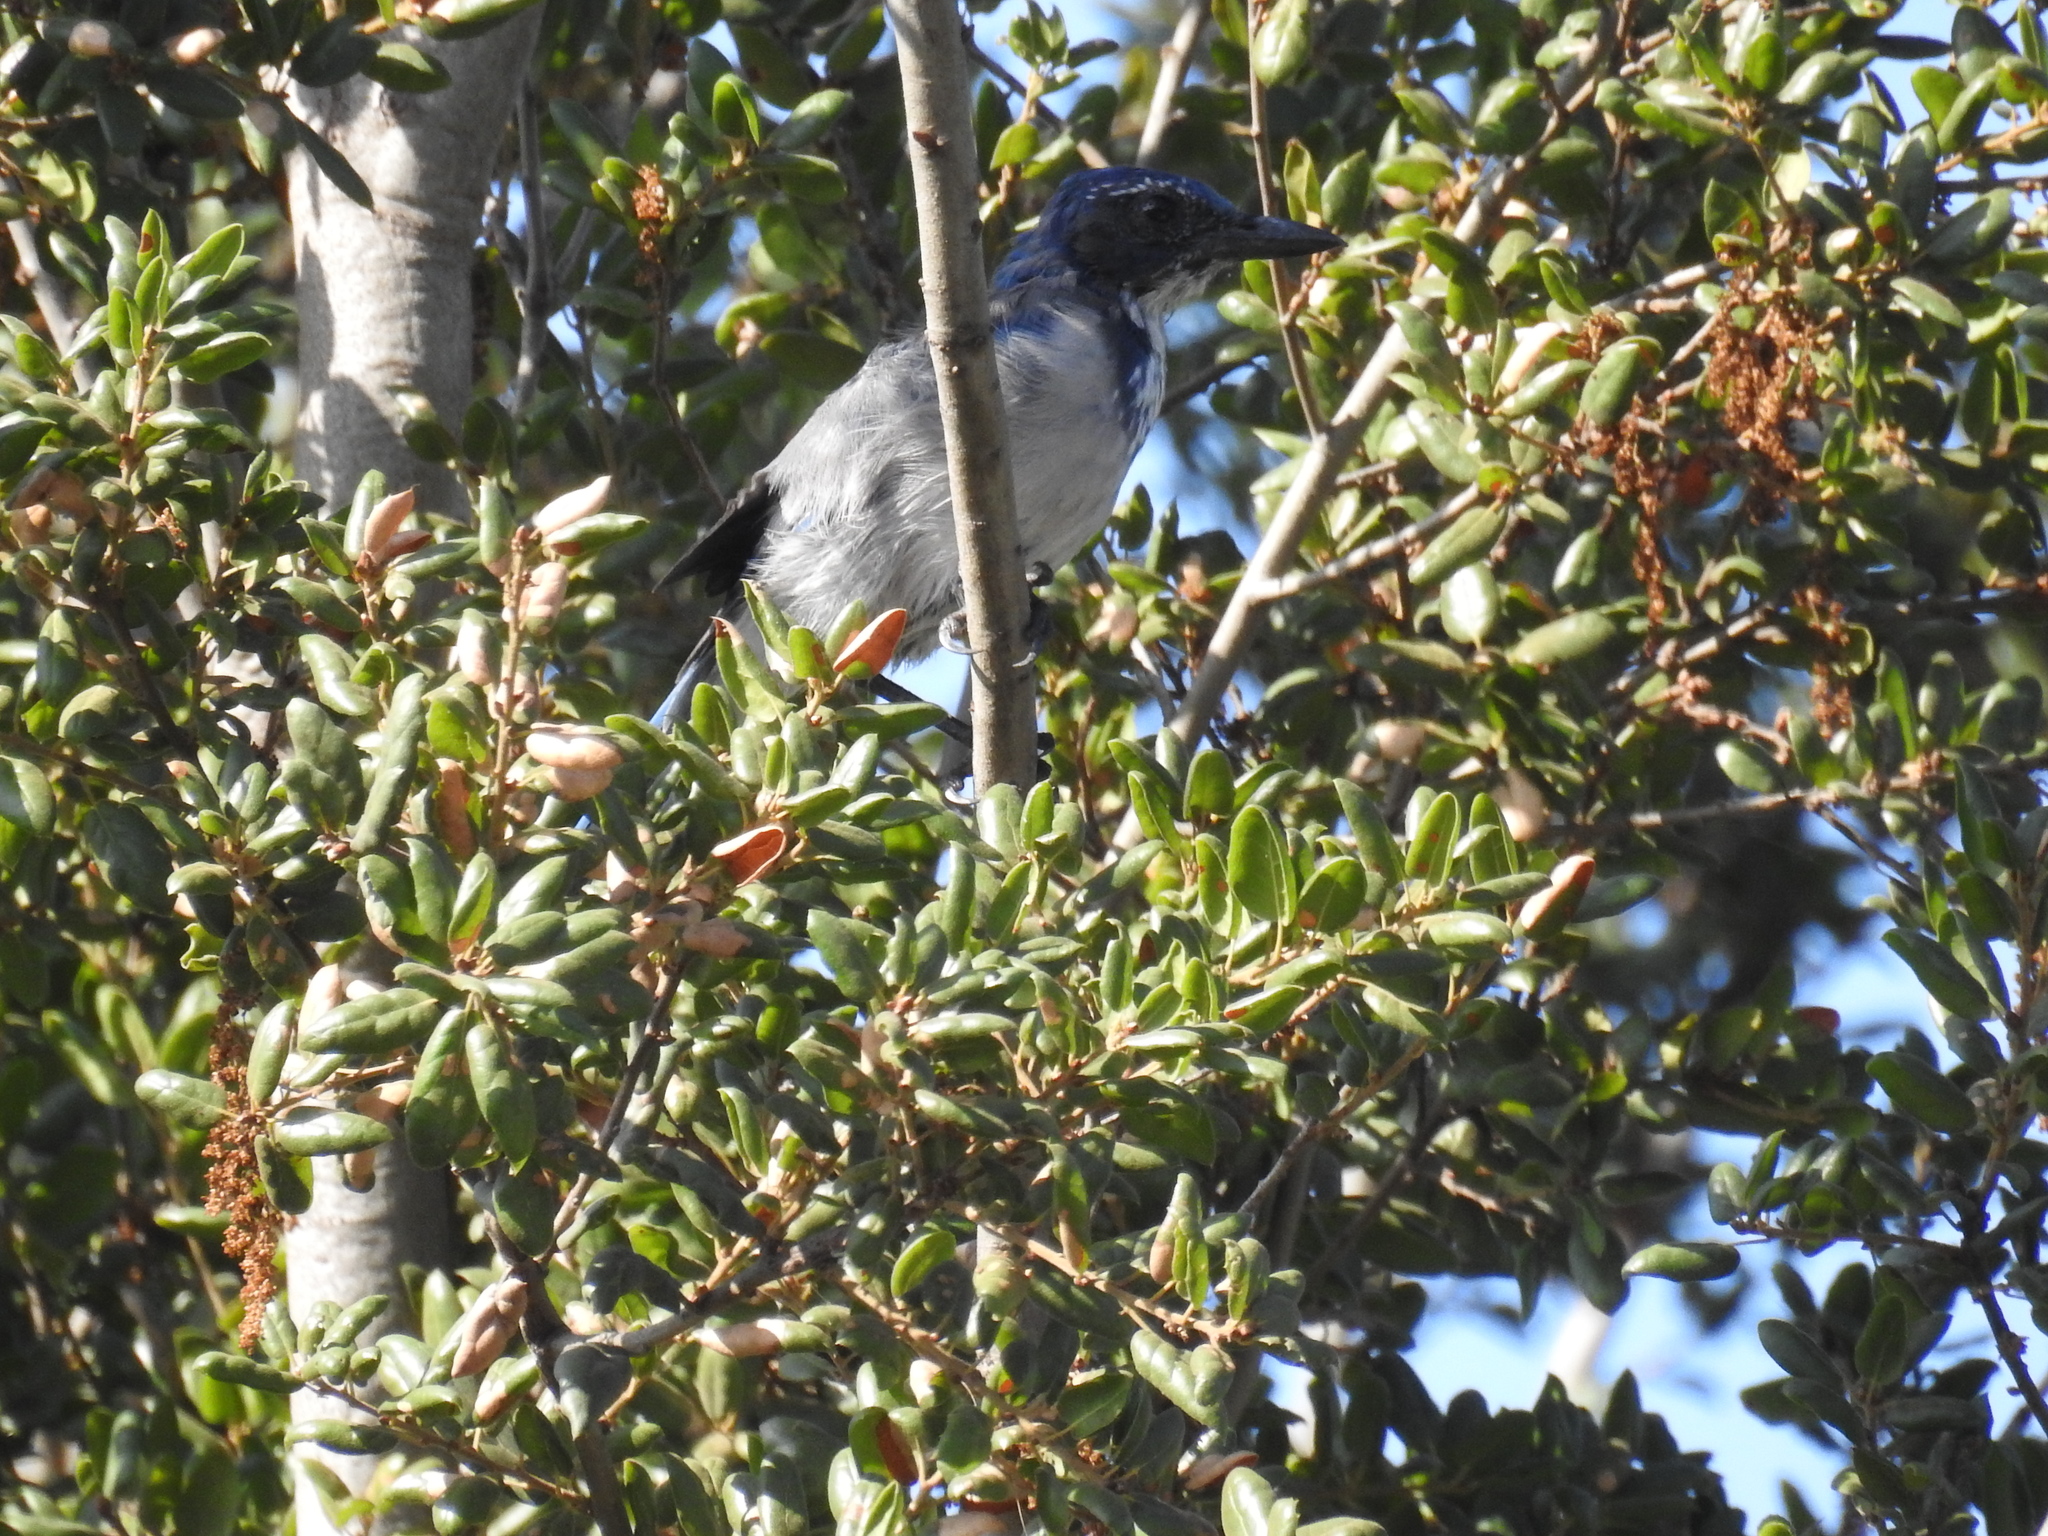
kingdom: Animalia
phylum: Chordata
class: Aves
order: Passeriformes
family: Corvidae
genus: Aphelocoma
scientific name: Aphelocoma californica
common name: California scrub-jay
